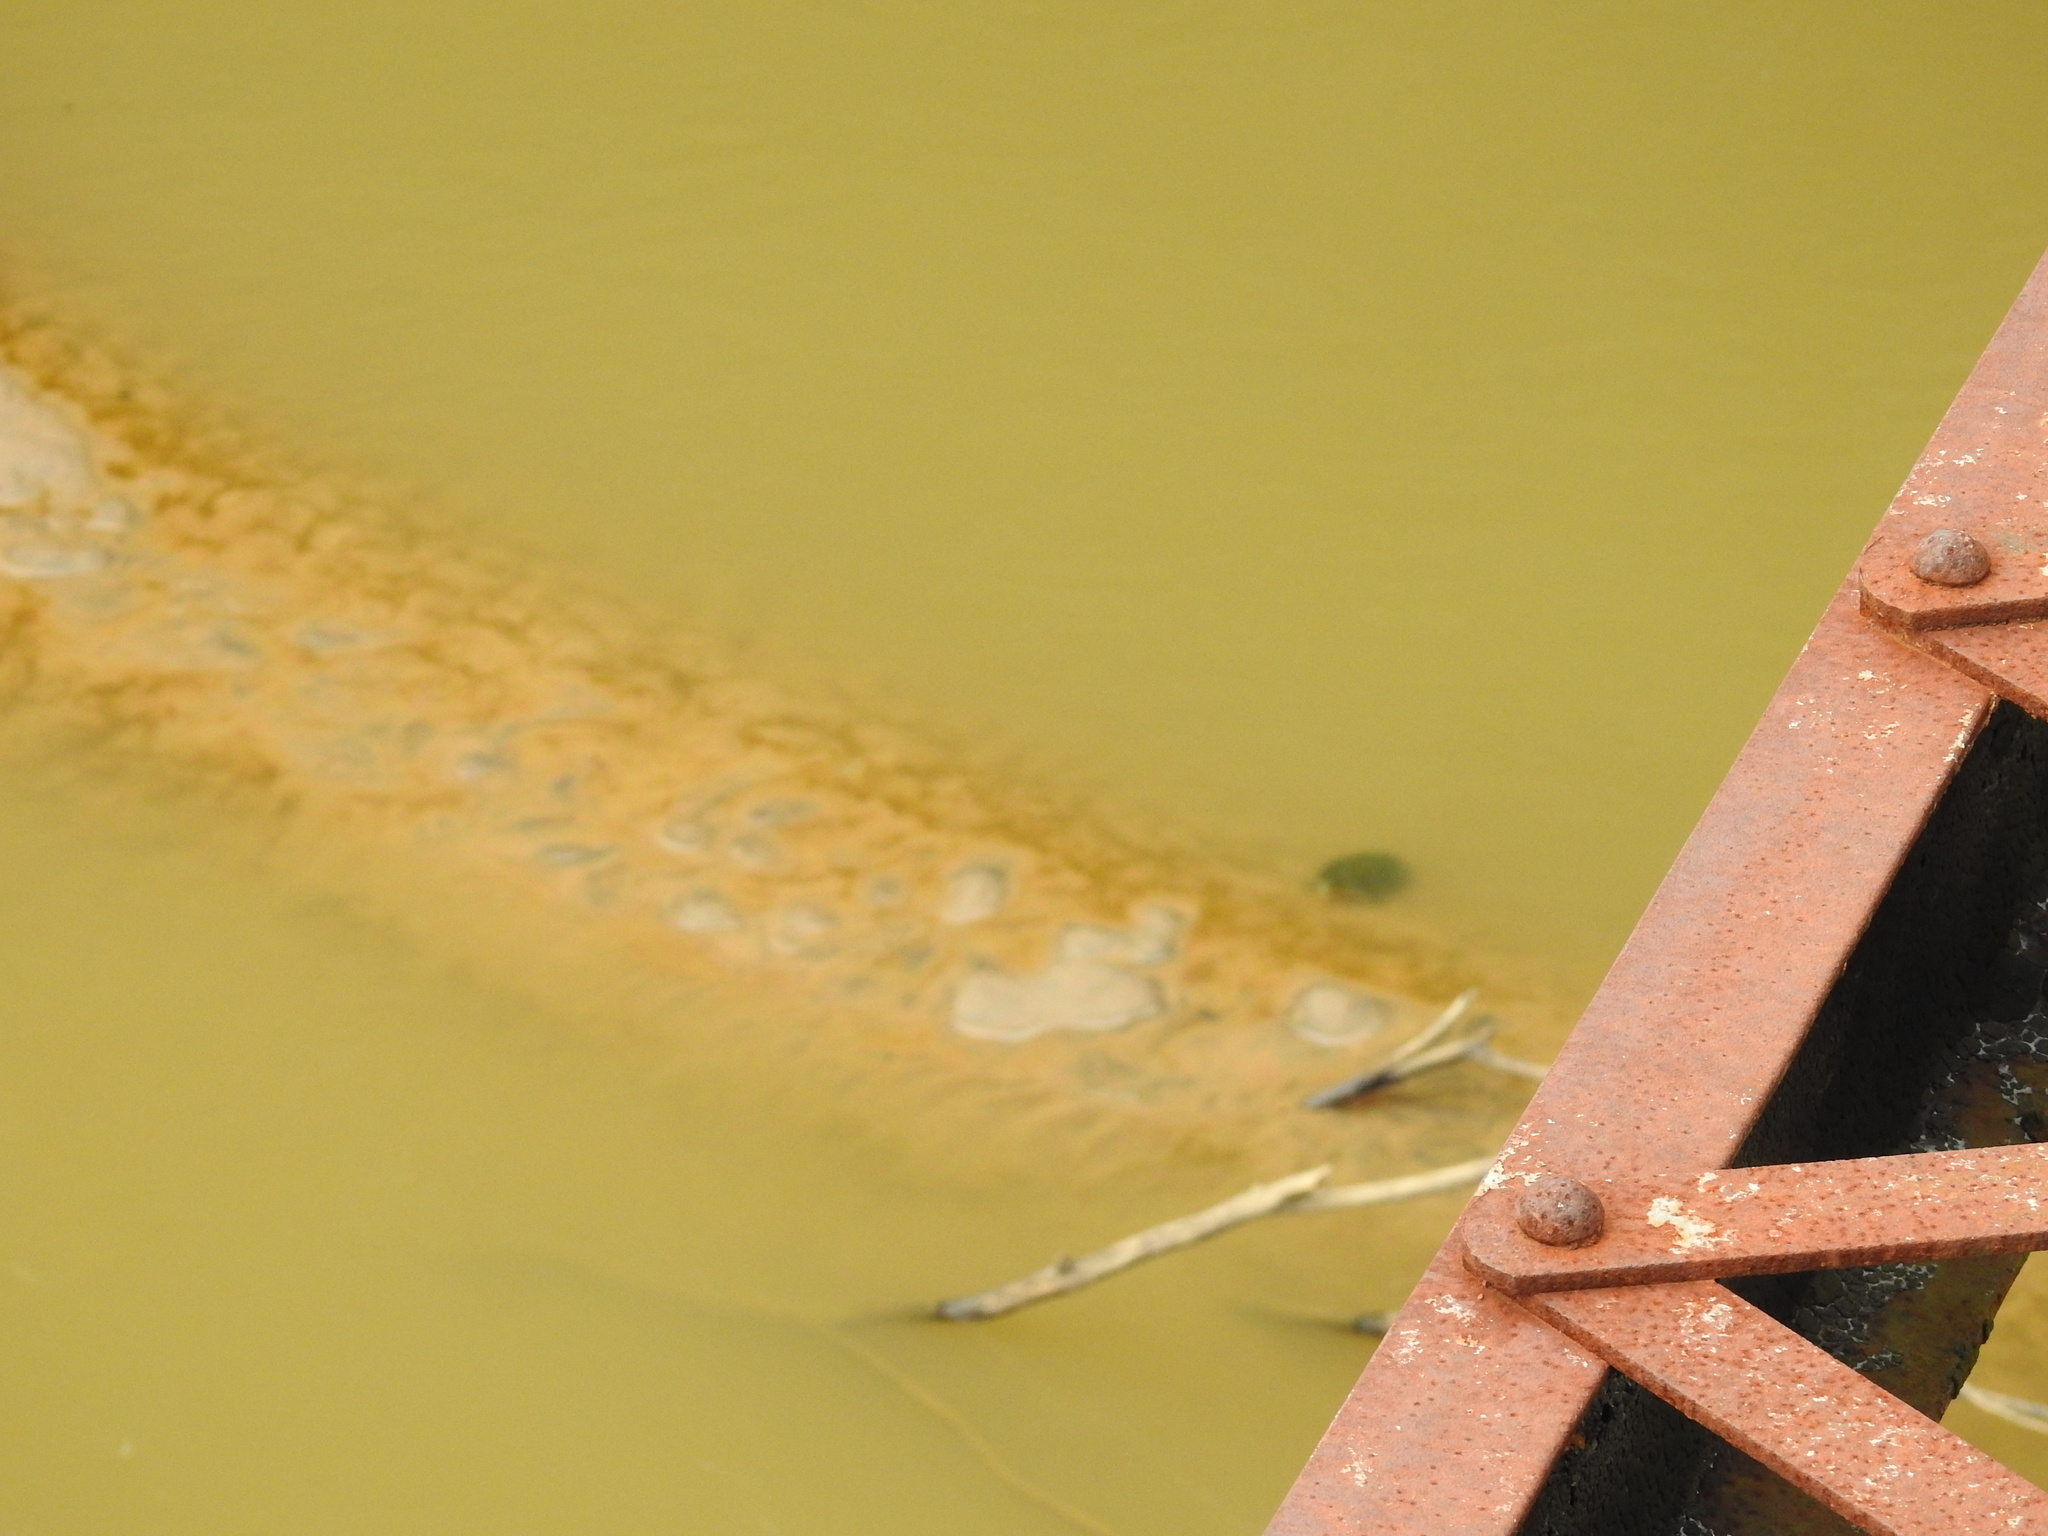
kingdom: Animalia
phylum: Chordata
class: Testudines
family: Emydidae
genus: Pseudemys
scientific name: Pseudemys concinna
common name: Eastern river cooter
